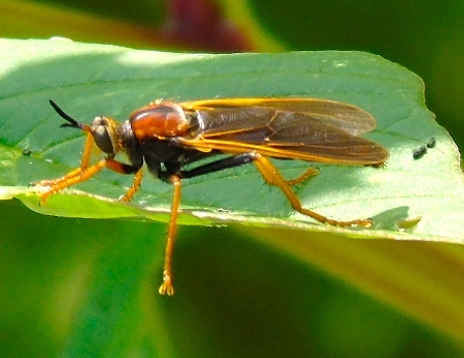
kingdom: Animalia
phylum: Arthropoda
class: Insecta
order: Diptera
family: Asilidae
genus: Stenopogon
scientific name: Stenopogon tequilae
